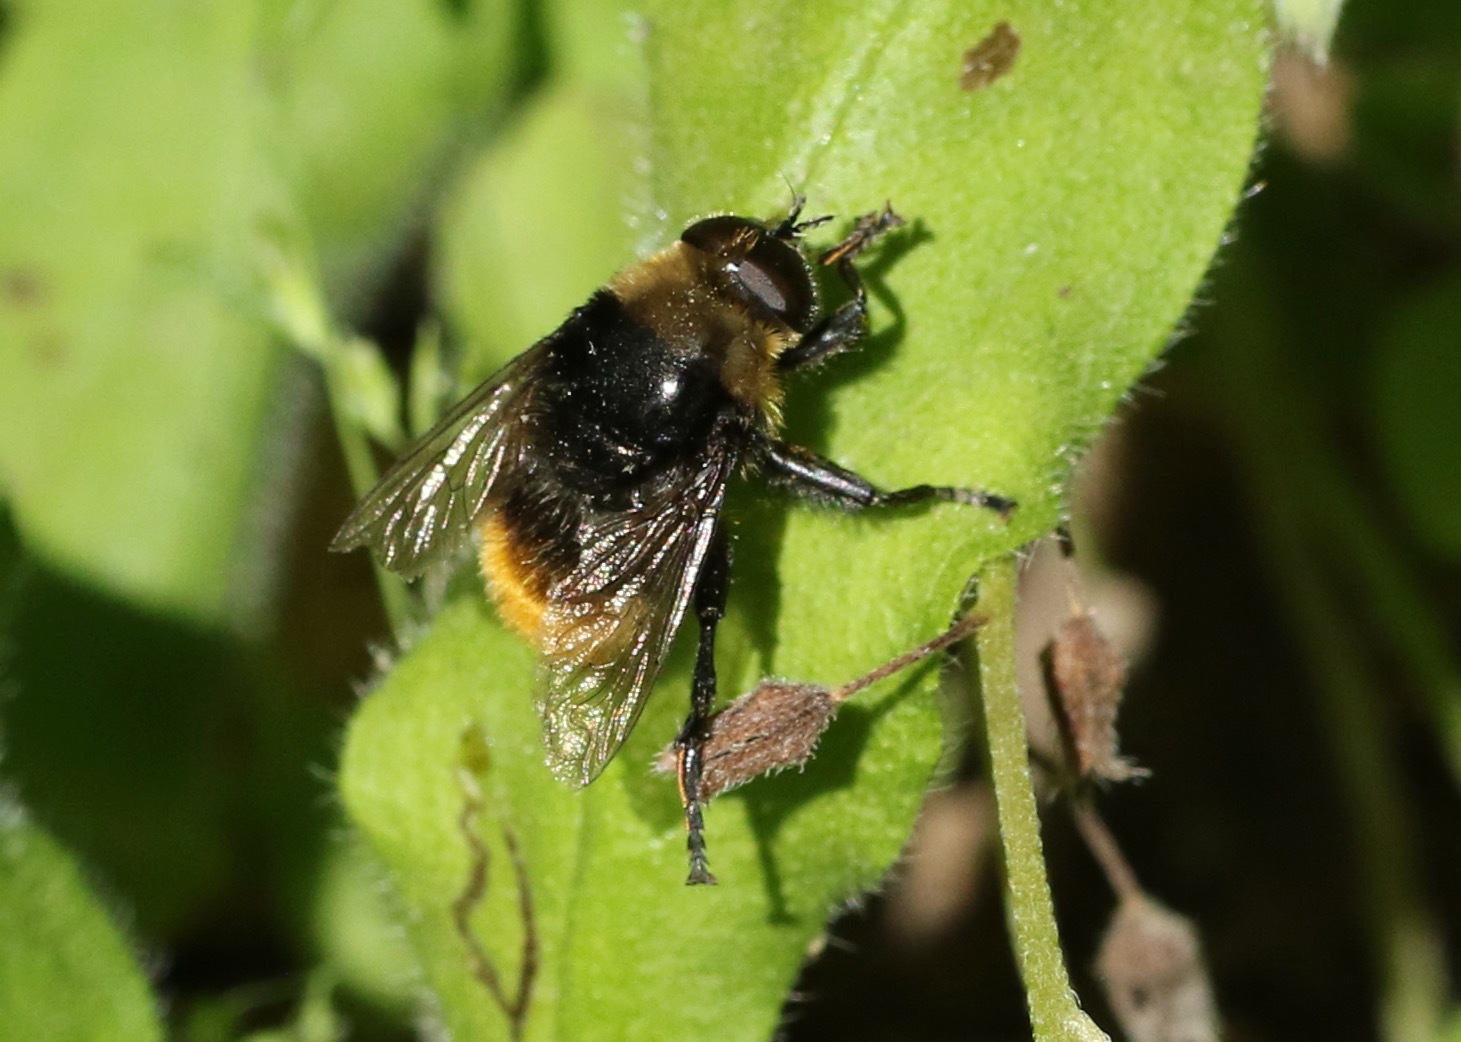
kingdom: Animalia
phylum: Arthropoda
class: Insecta
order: Diptera
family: Syrphidae
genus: Merodon
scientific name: Merodon equestris
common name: Greater bulb-fly
